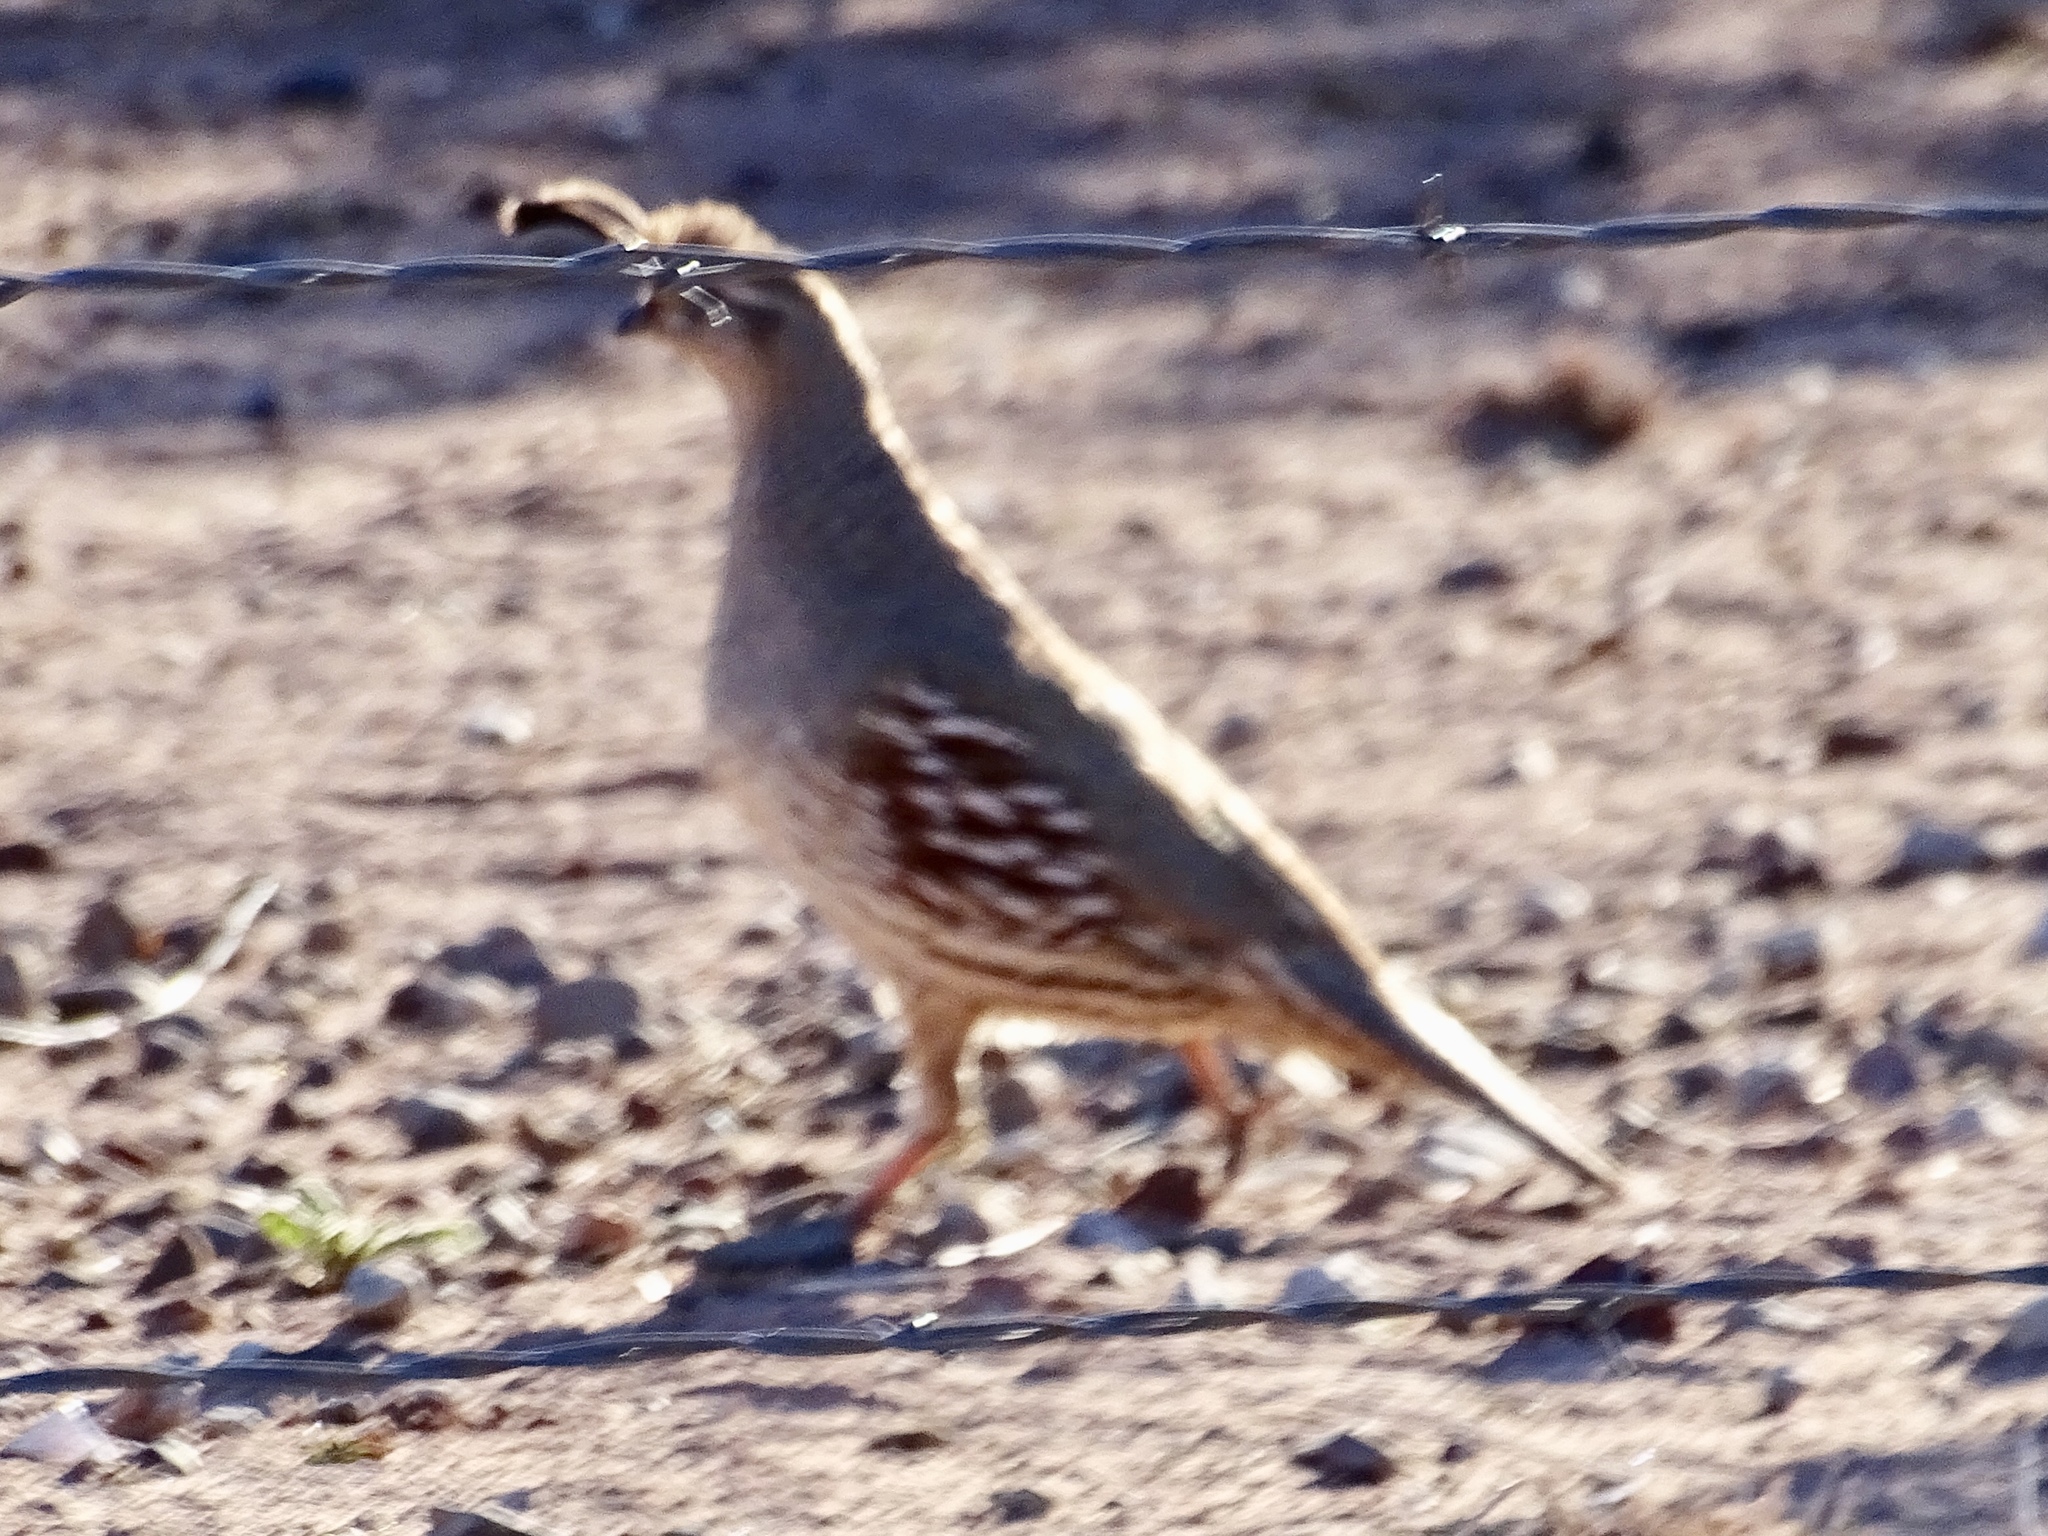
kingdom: Animalia
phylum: Chordata
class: Aves
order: Galliformes
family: Odontophoridae
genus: Callipepla
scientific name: Callipepla gambelii
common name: Gambel's quail
